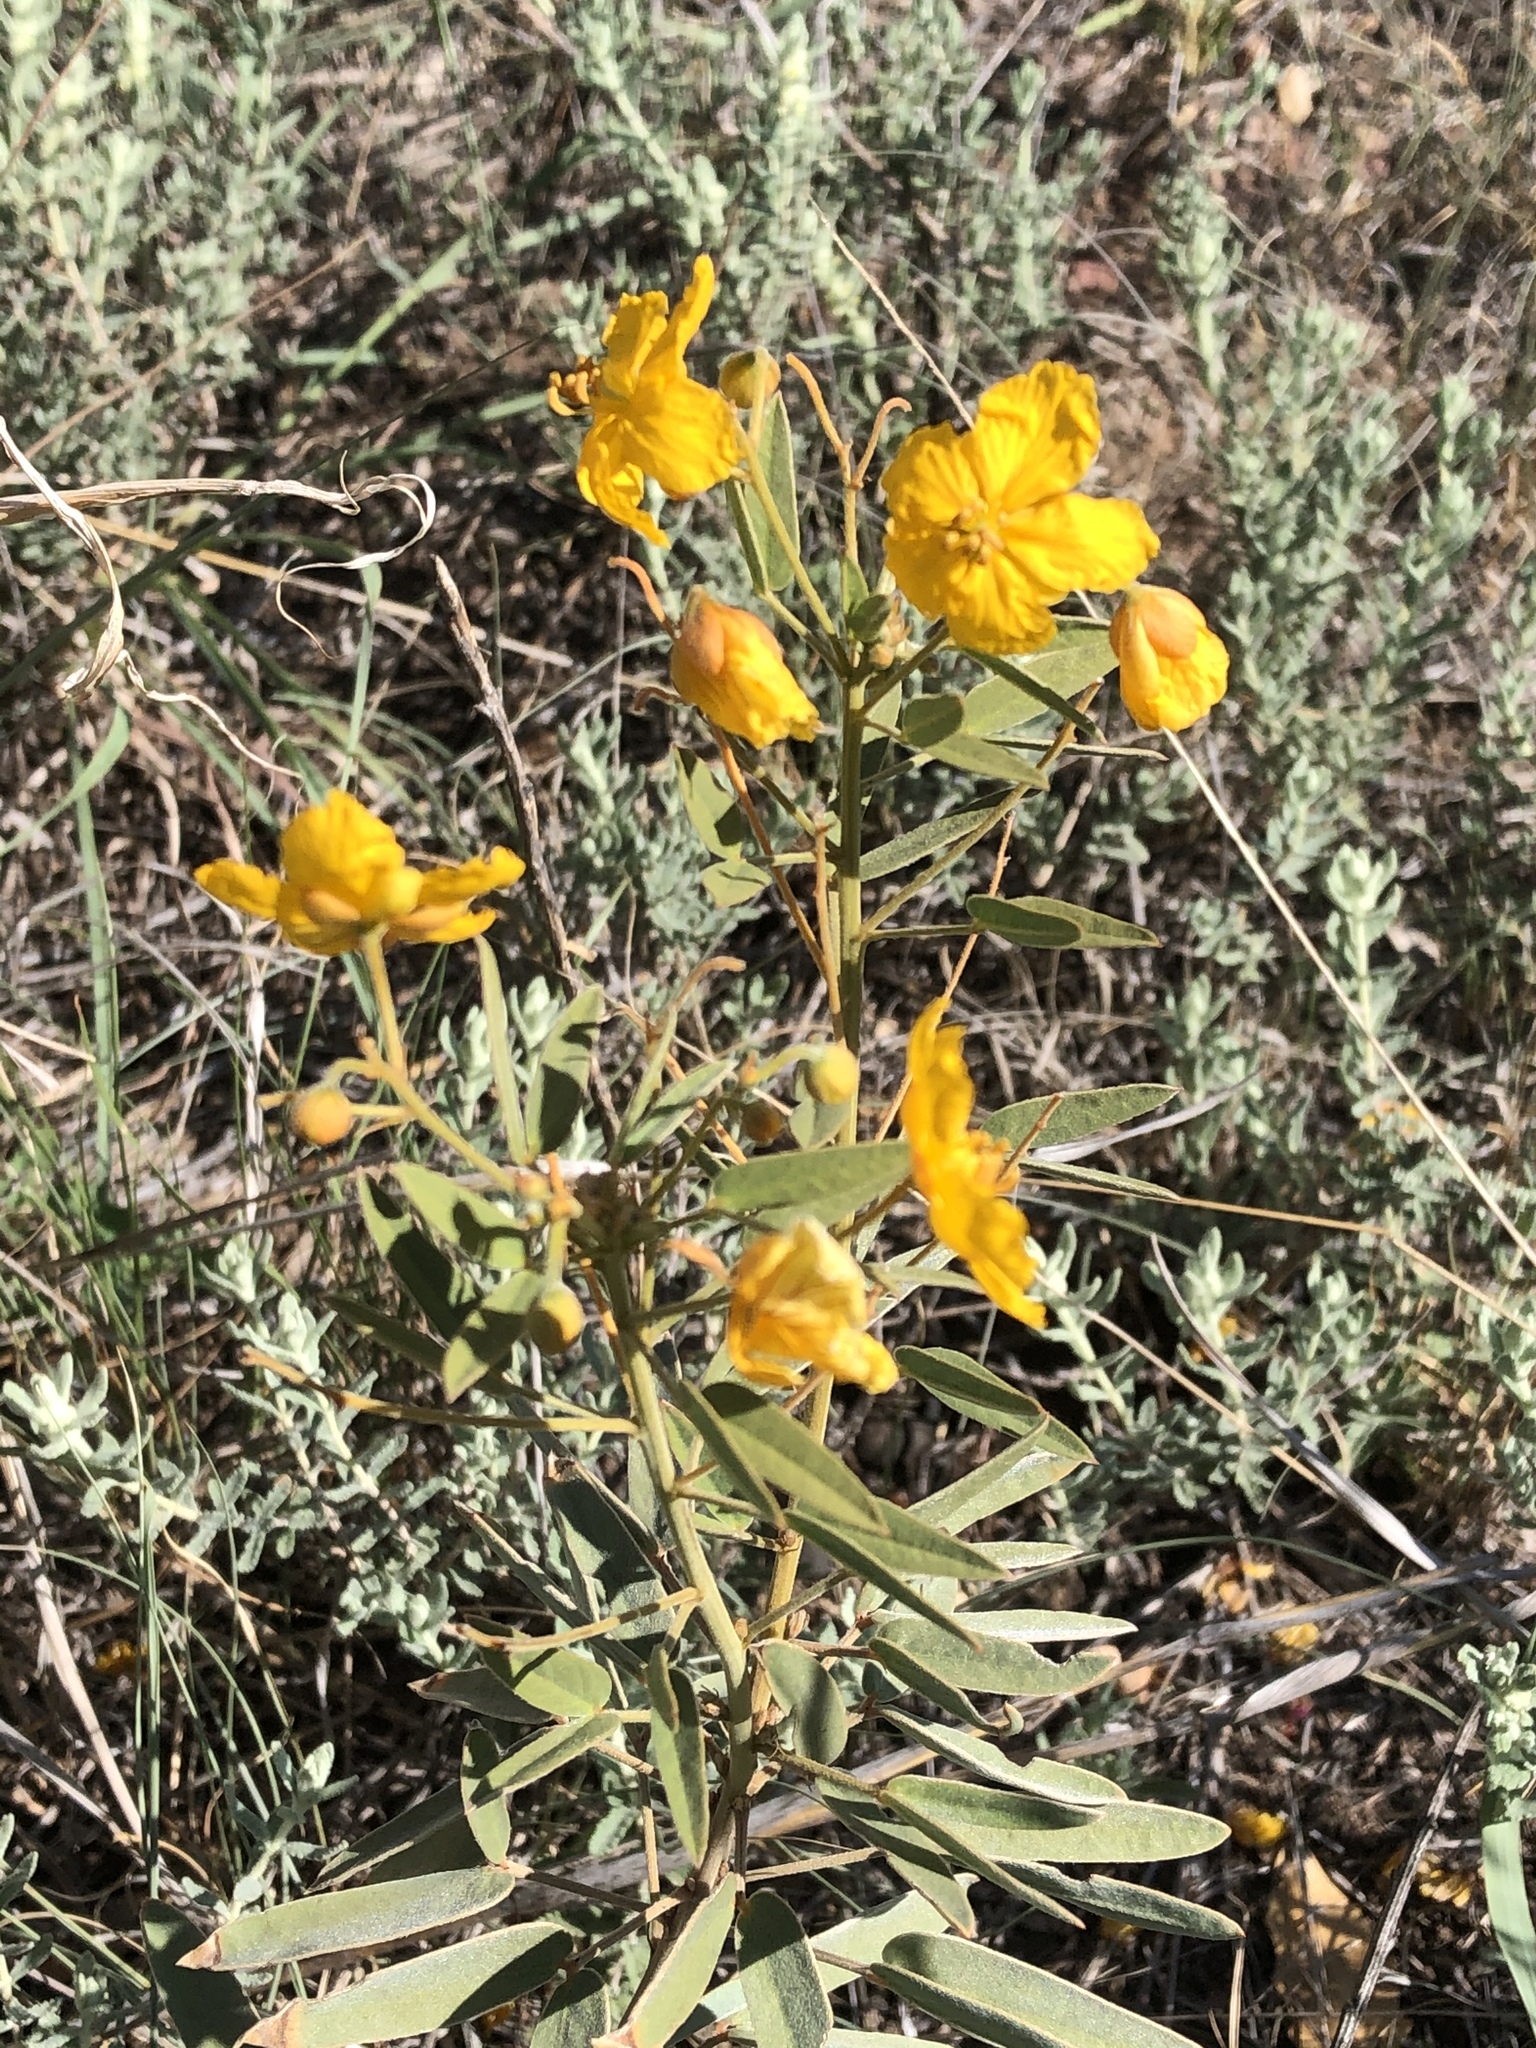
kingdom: Plantae
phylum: Tracheophyta
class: Magnoliopsida
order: Fabales
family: Fabaceae
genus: Senna
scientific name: Senna roemeriana
